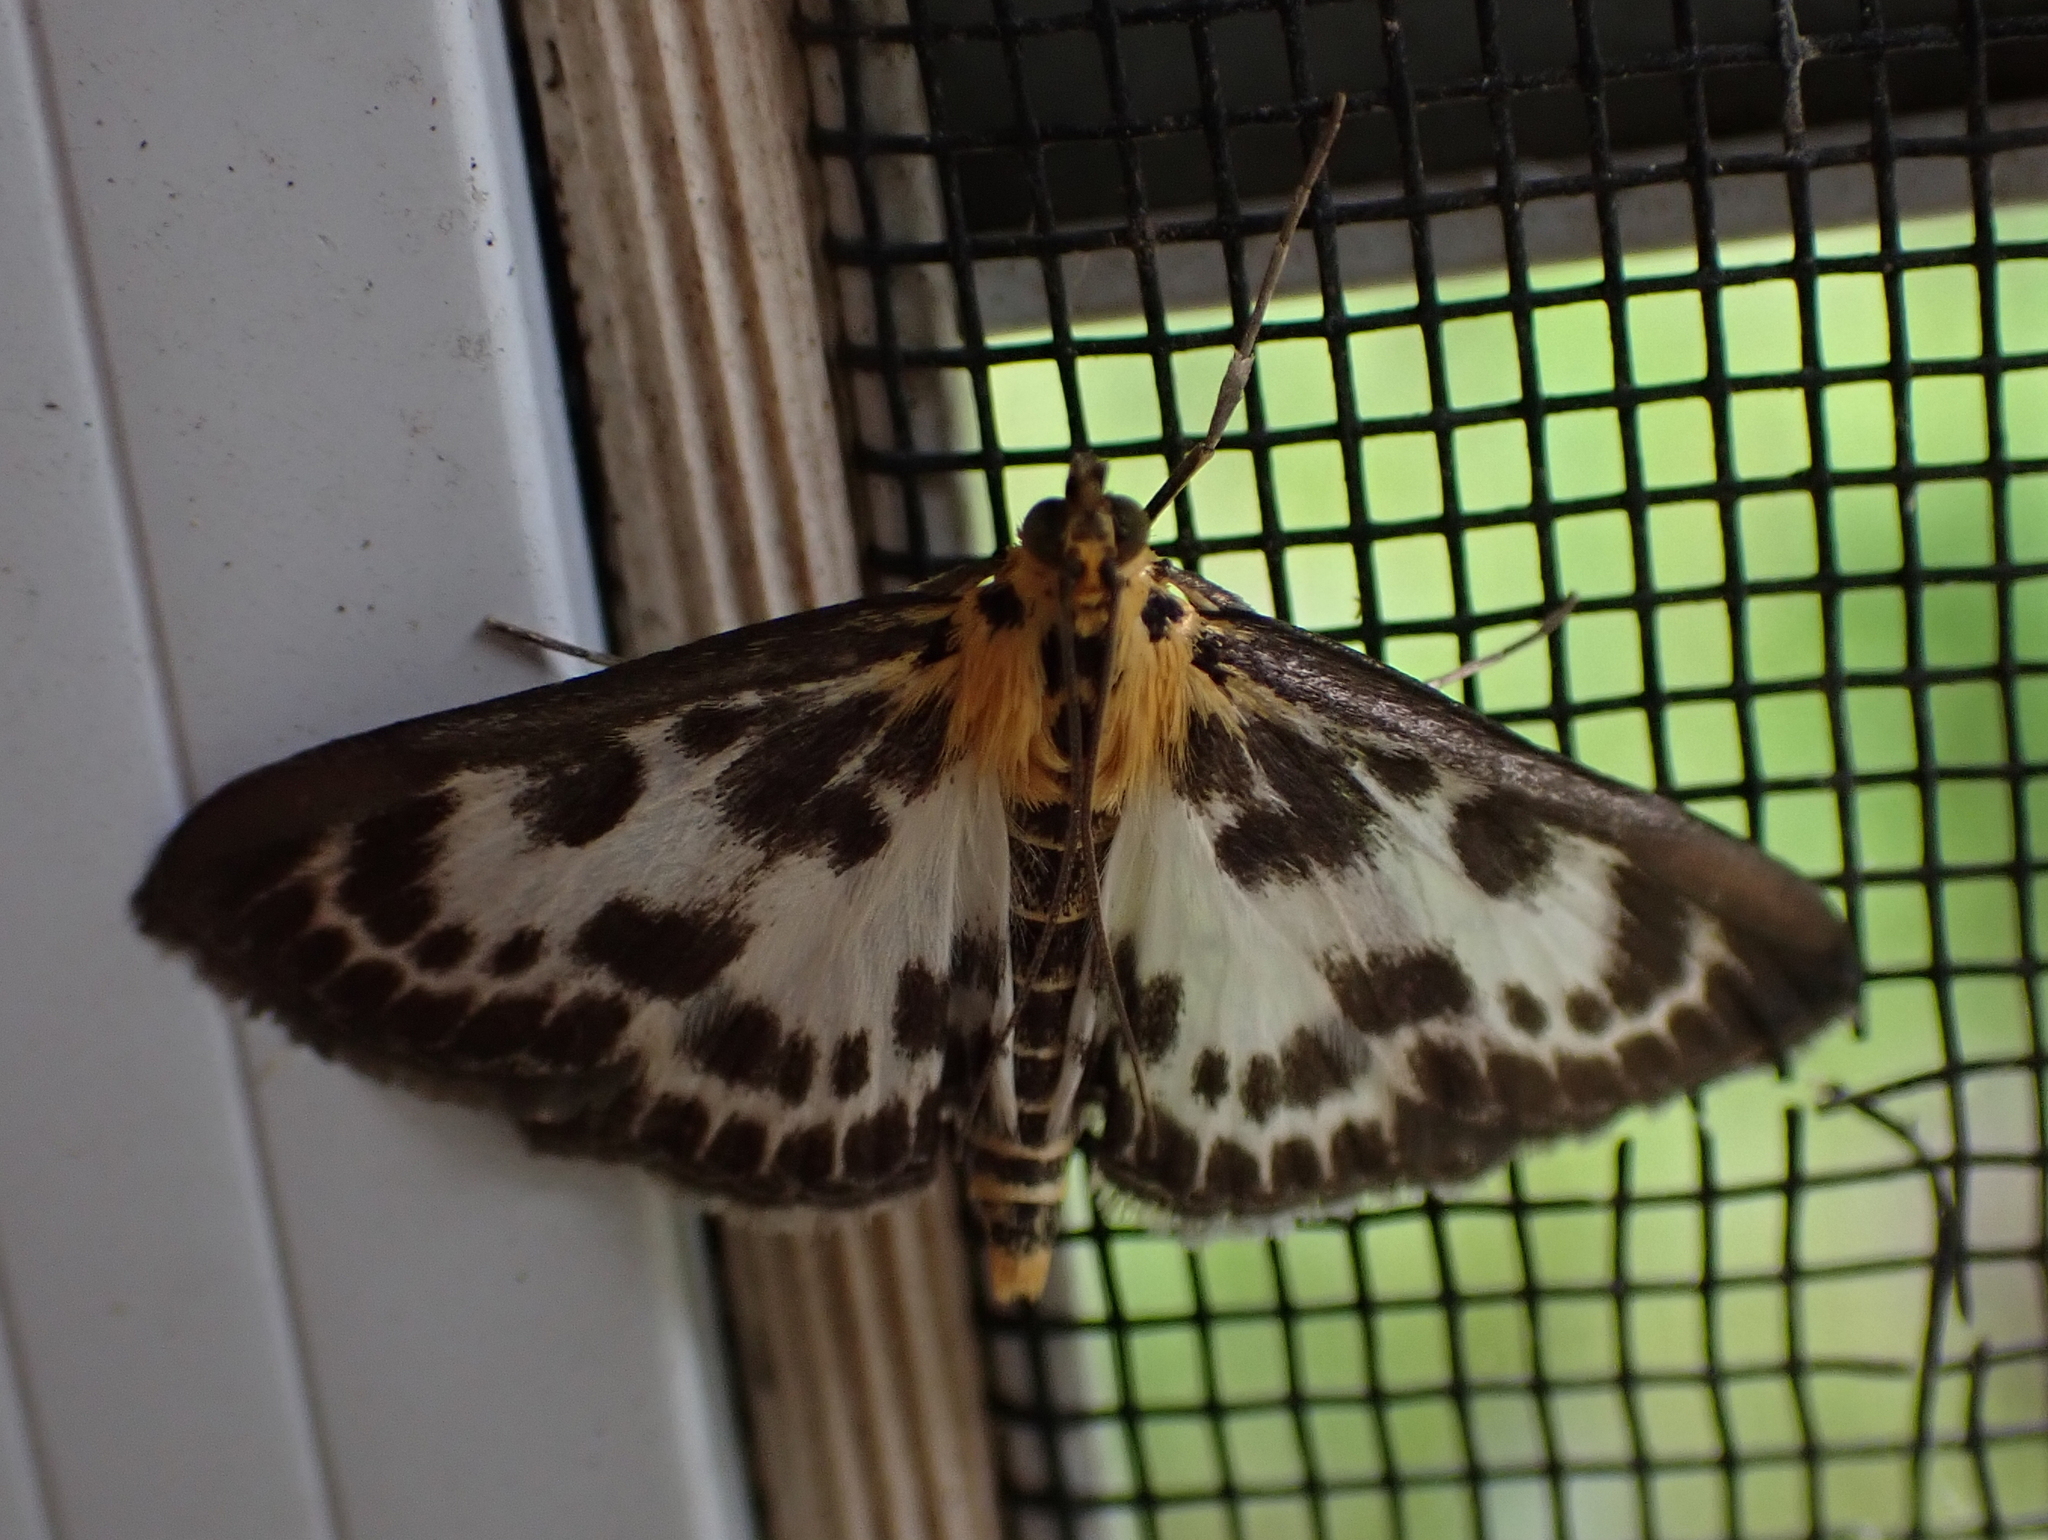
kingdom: Animalia
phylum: Arthropoda
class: Insecta
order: Lepidoptera
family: Crambidae
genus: Anania
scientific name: Anania hortulata
